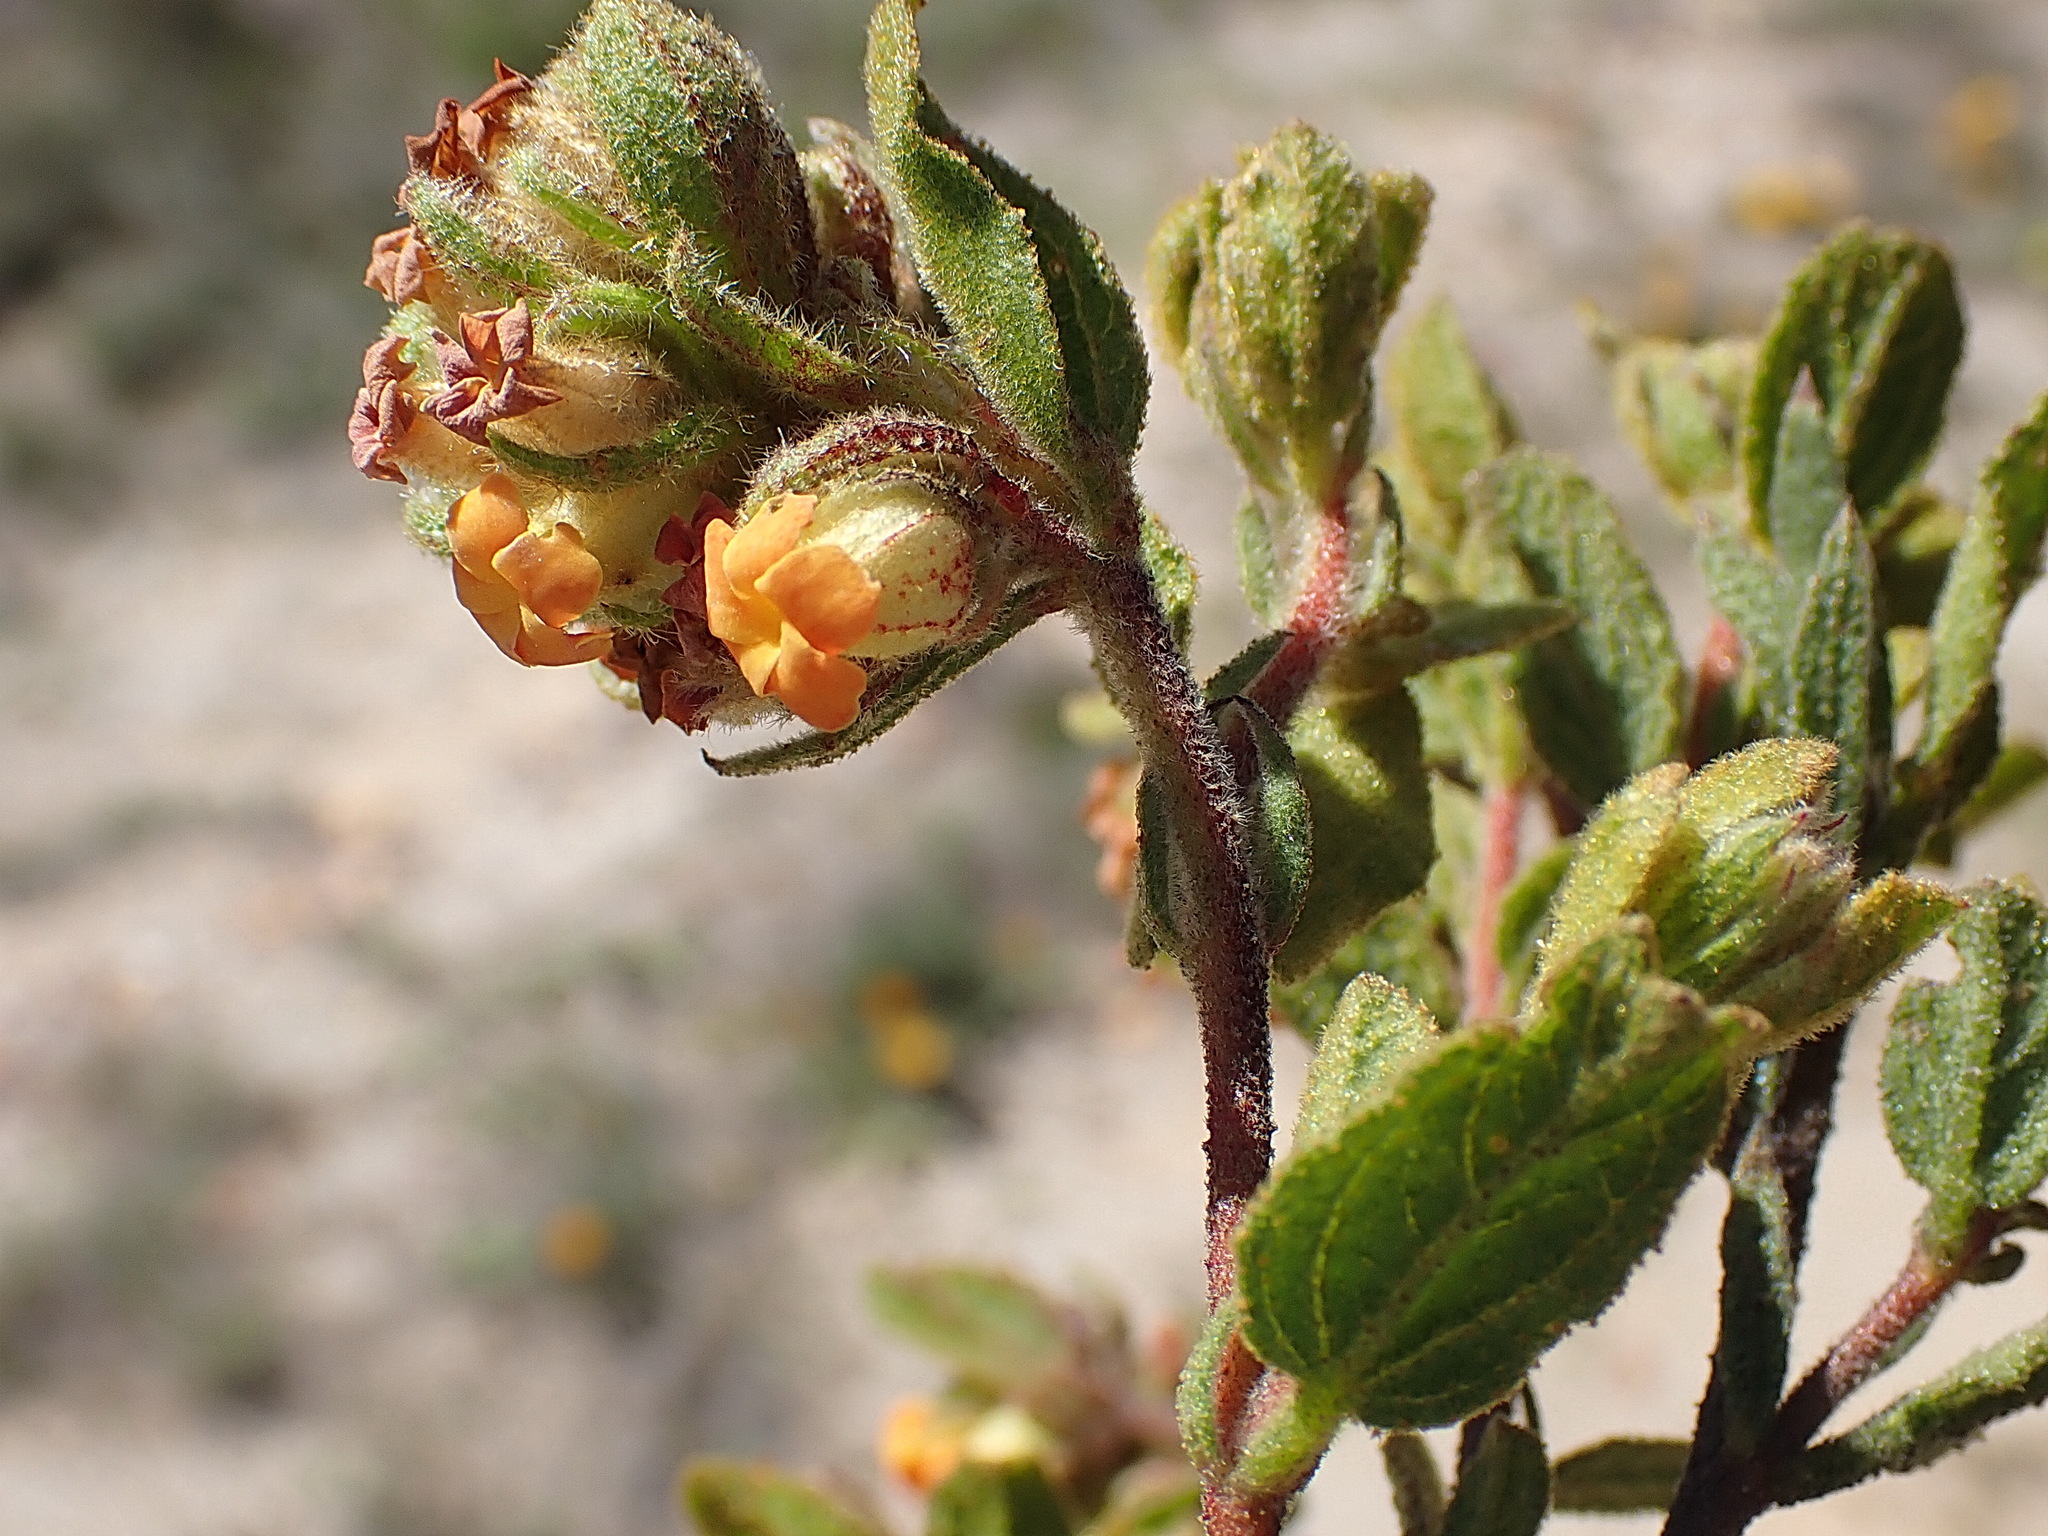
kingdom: Plantae
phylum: Tracheophyta
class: Magnoliopsida
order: Malvales
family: Malvaceae
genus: Hermannia
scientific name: Hermannia salviifolia
